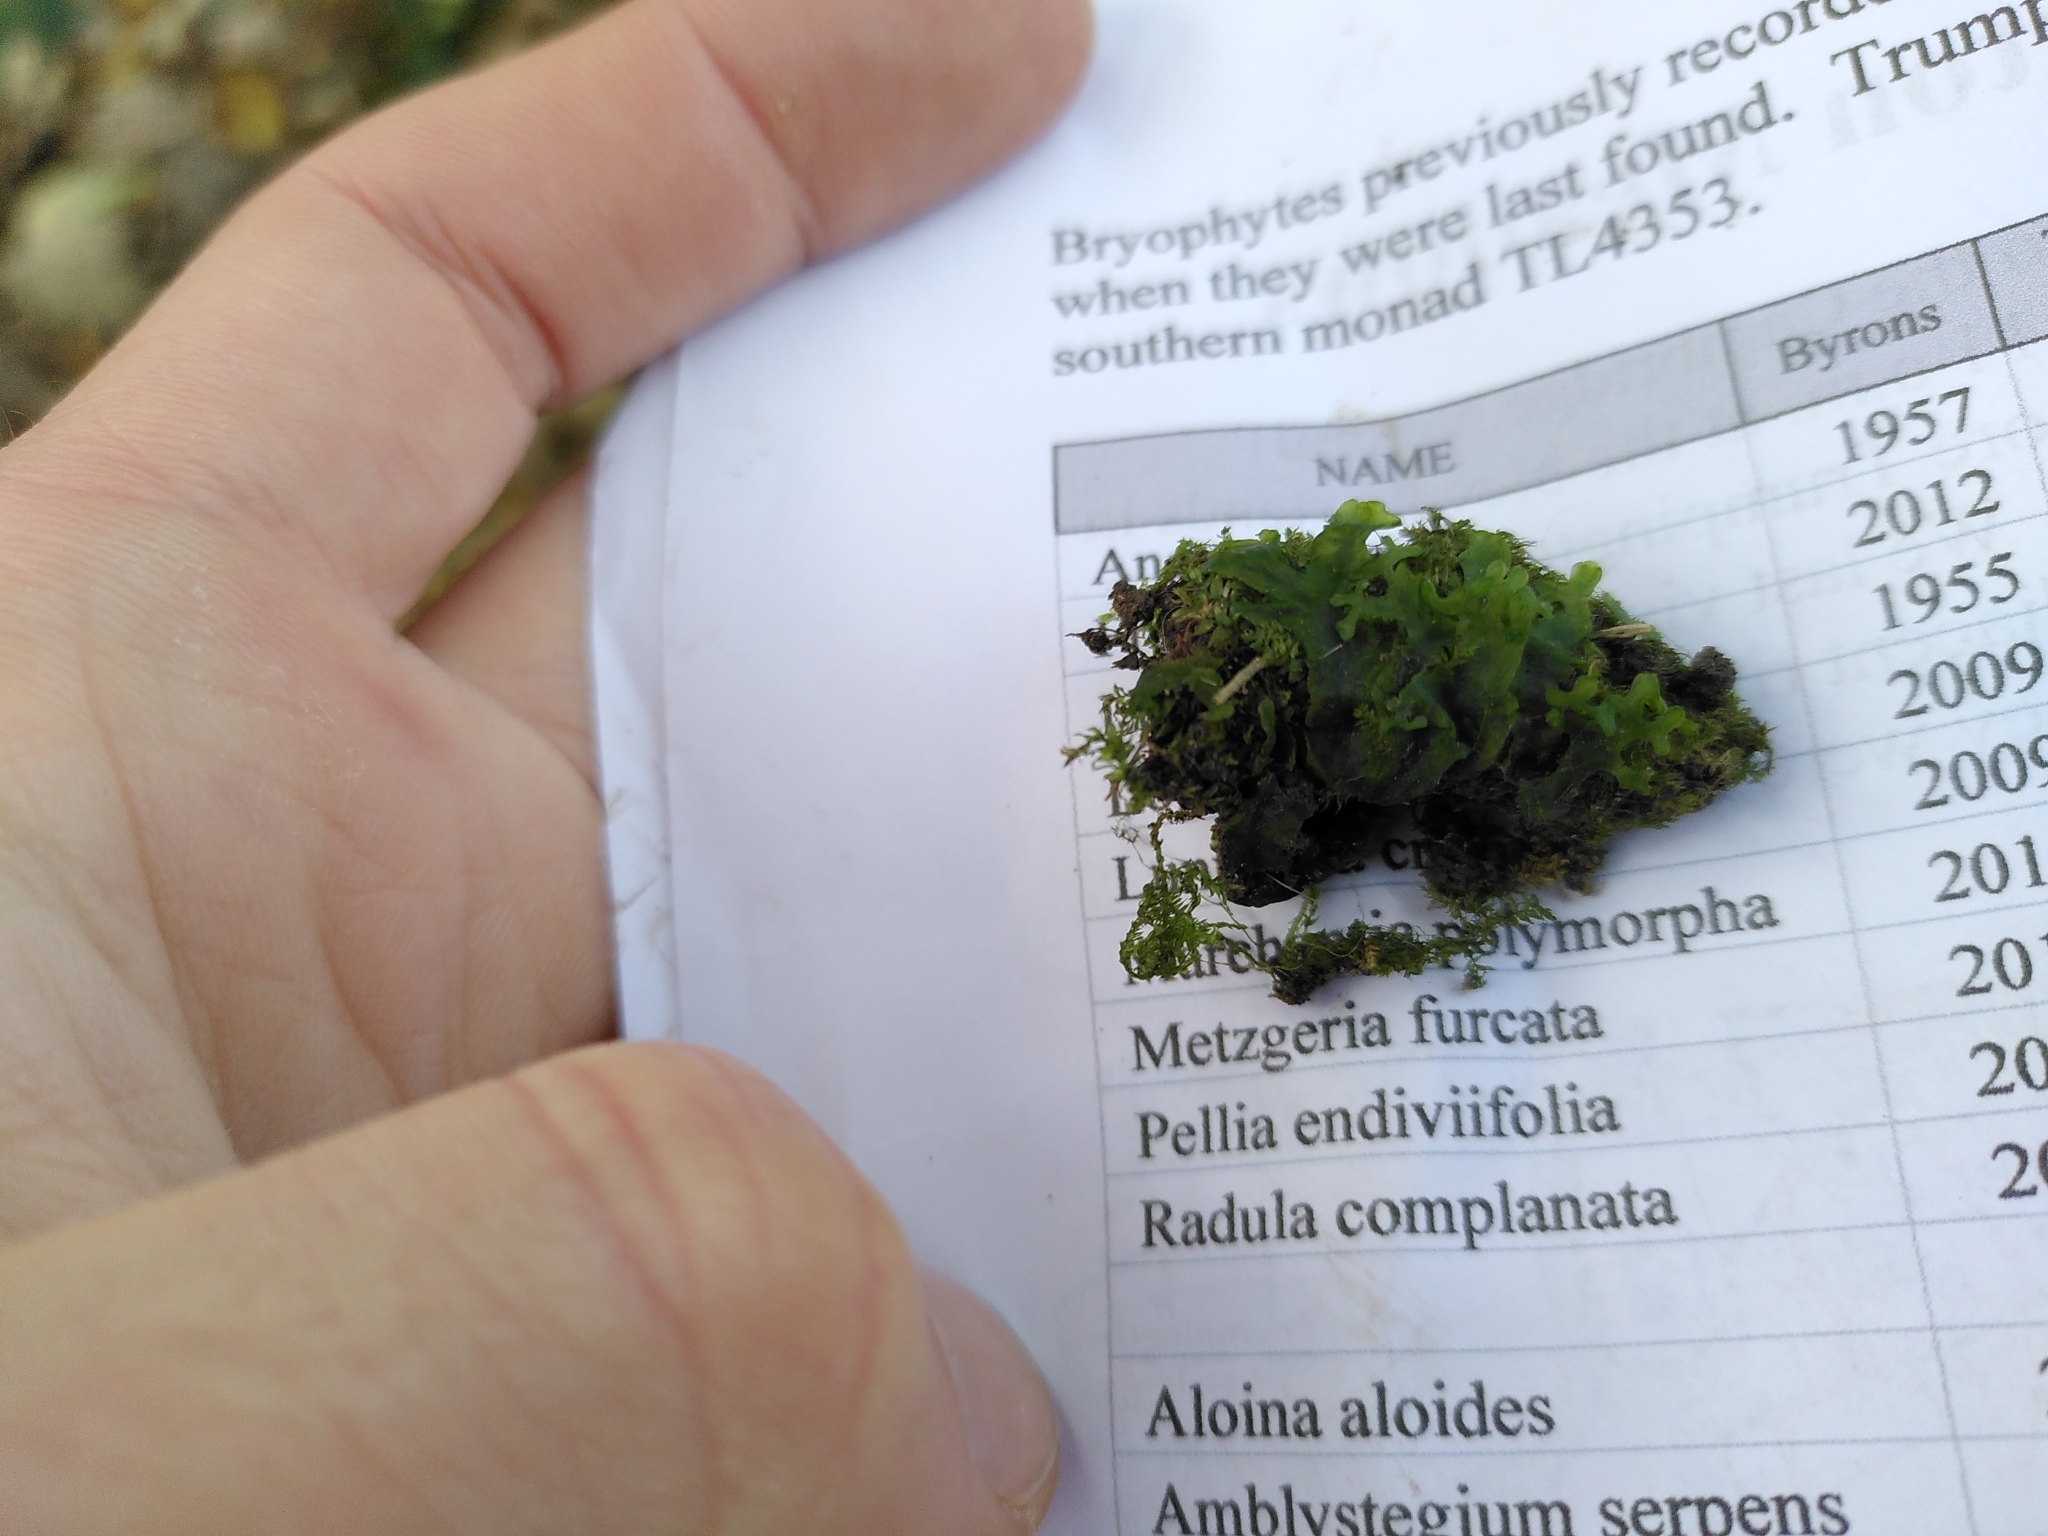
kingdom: Plantae
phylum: Marchantiophyta
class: Jungermanniopsida
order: Pelliales
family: Pelliaceae
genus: Apopellia
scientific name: Apopellia endiviifolia
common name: Endive pellia
